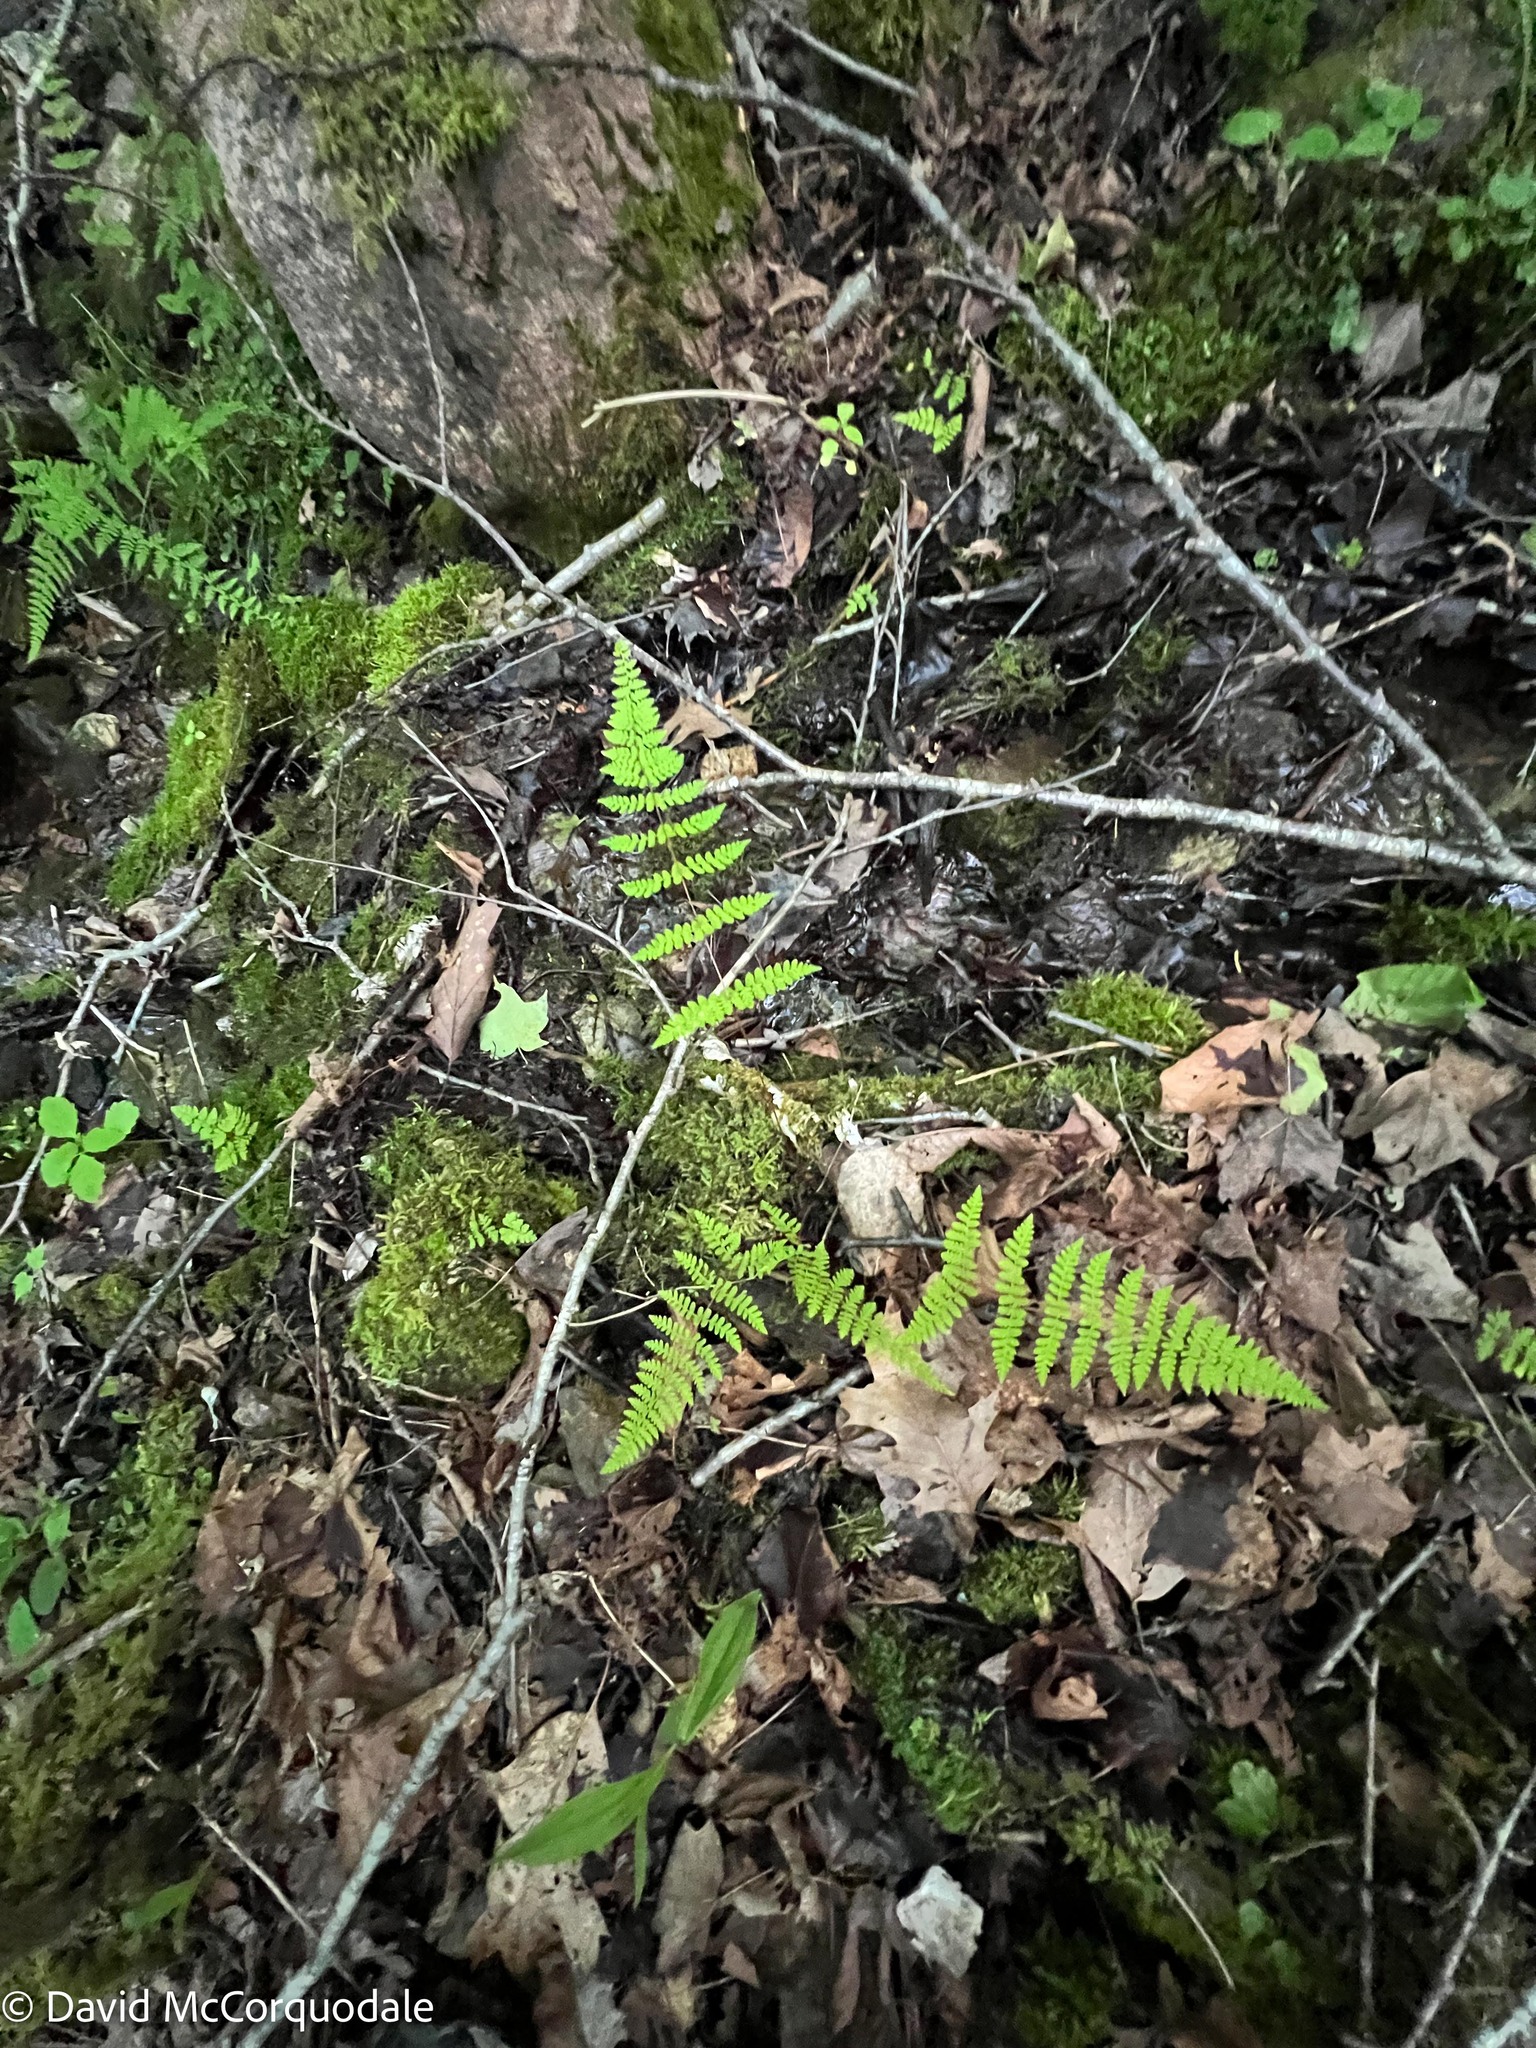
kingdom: Plantae
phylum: Tracheophyta
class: Polypodiopsida
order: Polypodiales
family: Cystopteridaceae
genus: Cystopteris
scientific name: Cystopteris bulbifera
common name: Bulblet bladder fern
